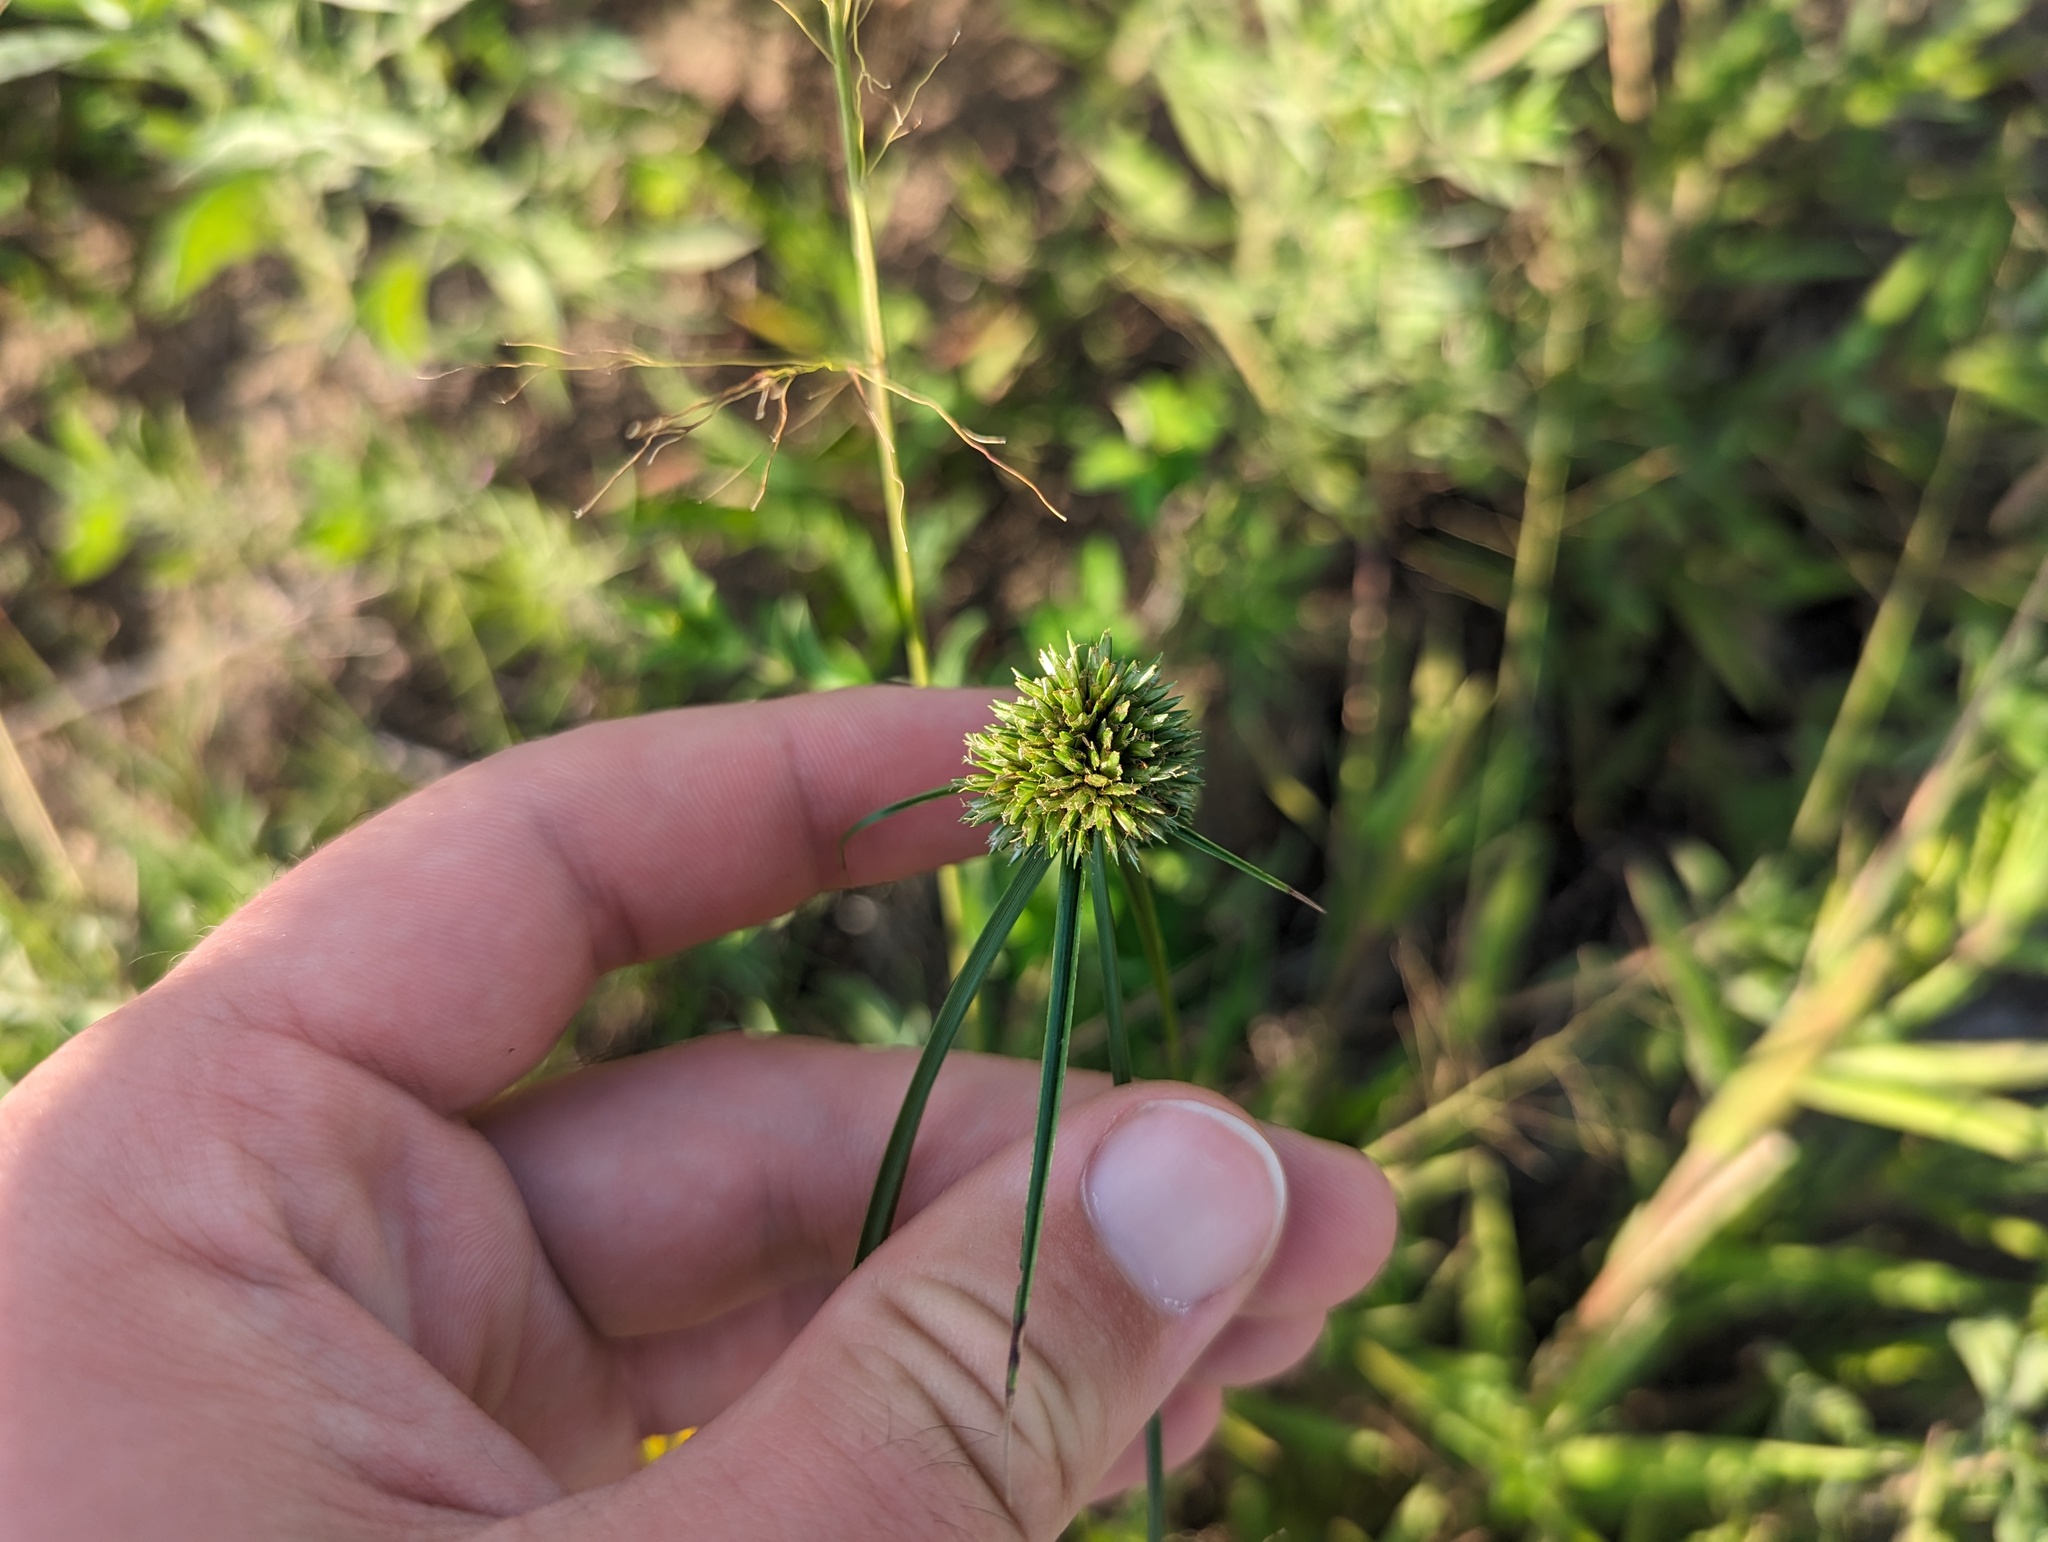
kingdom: Plantae
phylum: Tracheophyta
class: Liliopsida
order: Poales
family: Cyperaceae
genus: Cyperus
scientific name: Cyperus lupulinus
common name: Great plains flatsedge
